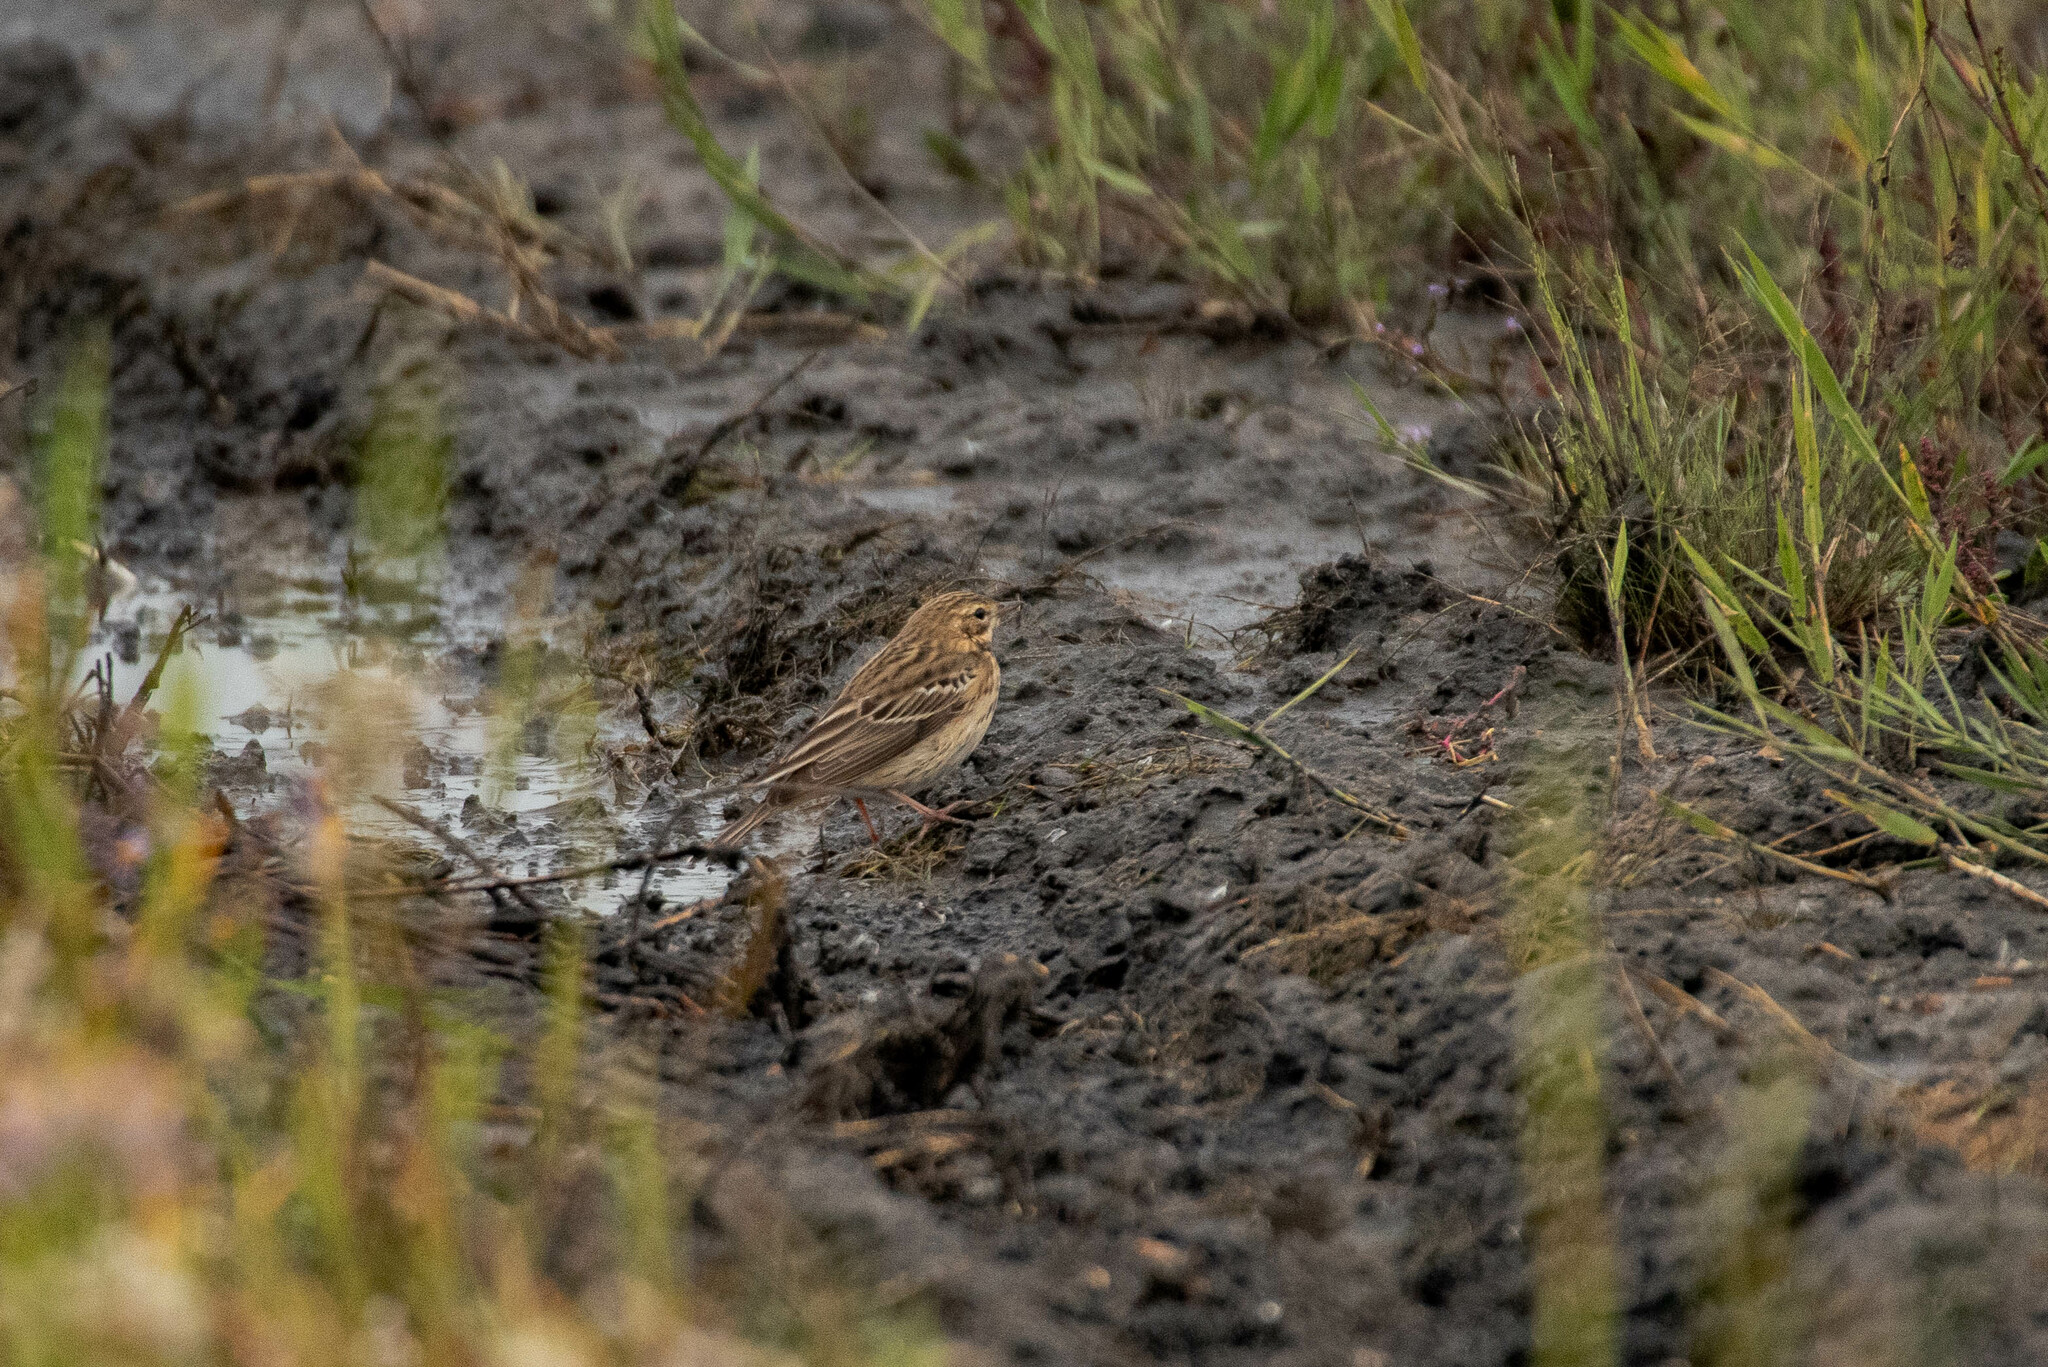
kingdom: Animalia
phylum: Chordata
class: Aves
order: Passeriformes
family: Motacillidae
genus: Anthus
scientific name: Anthus trivialis
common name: Tree pipit
